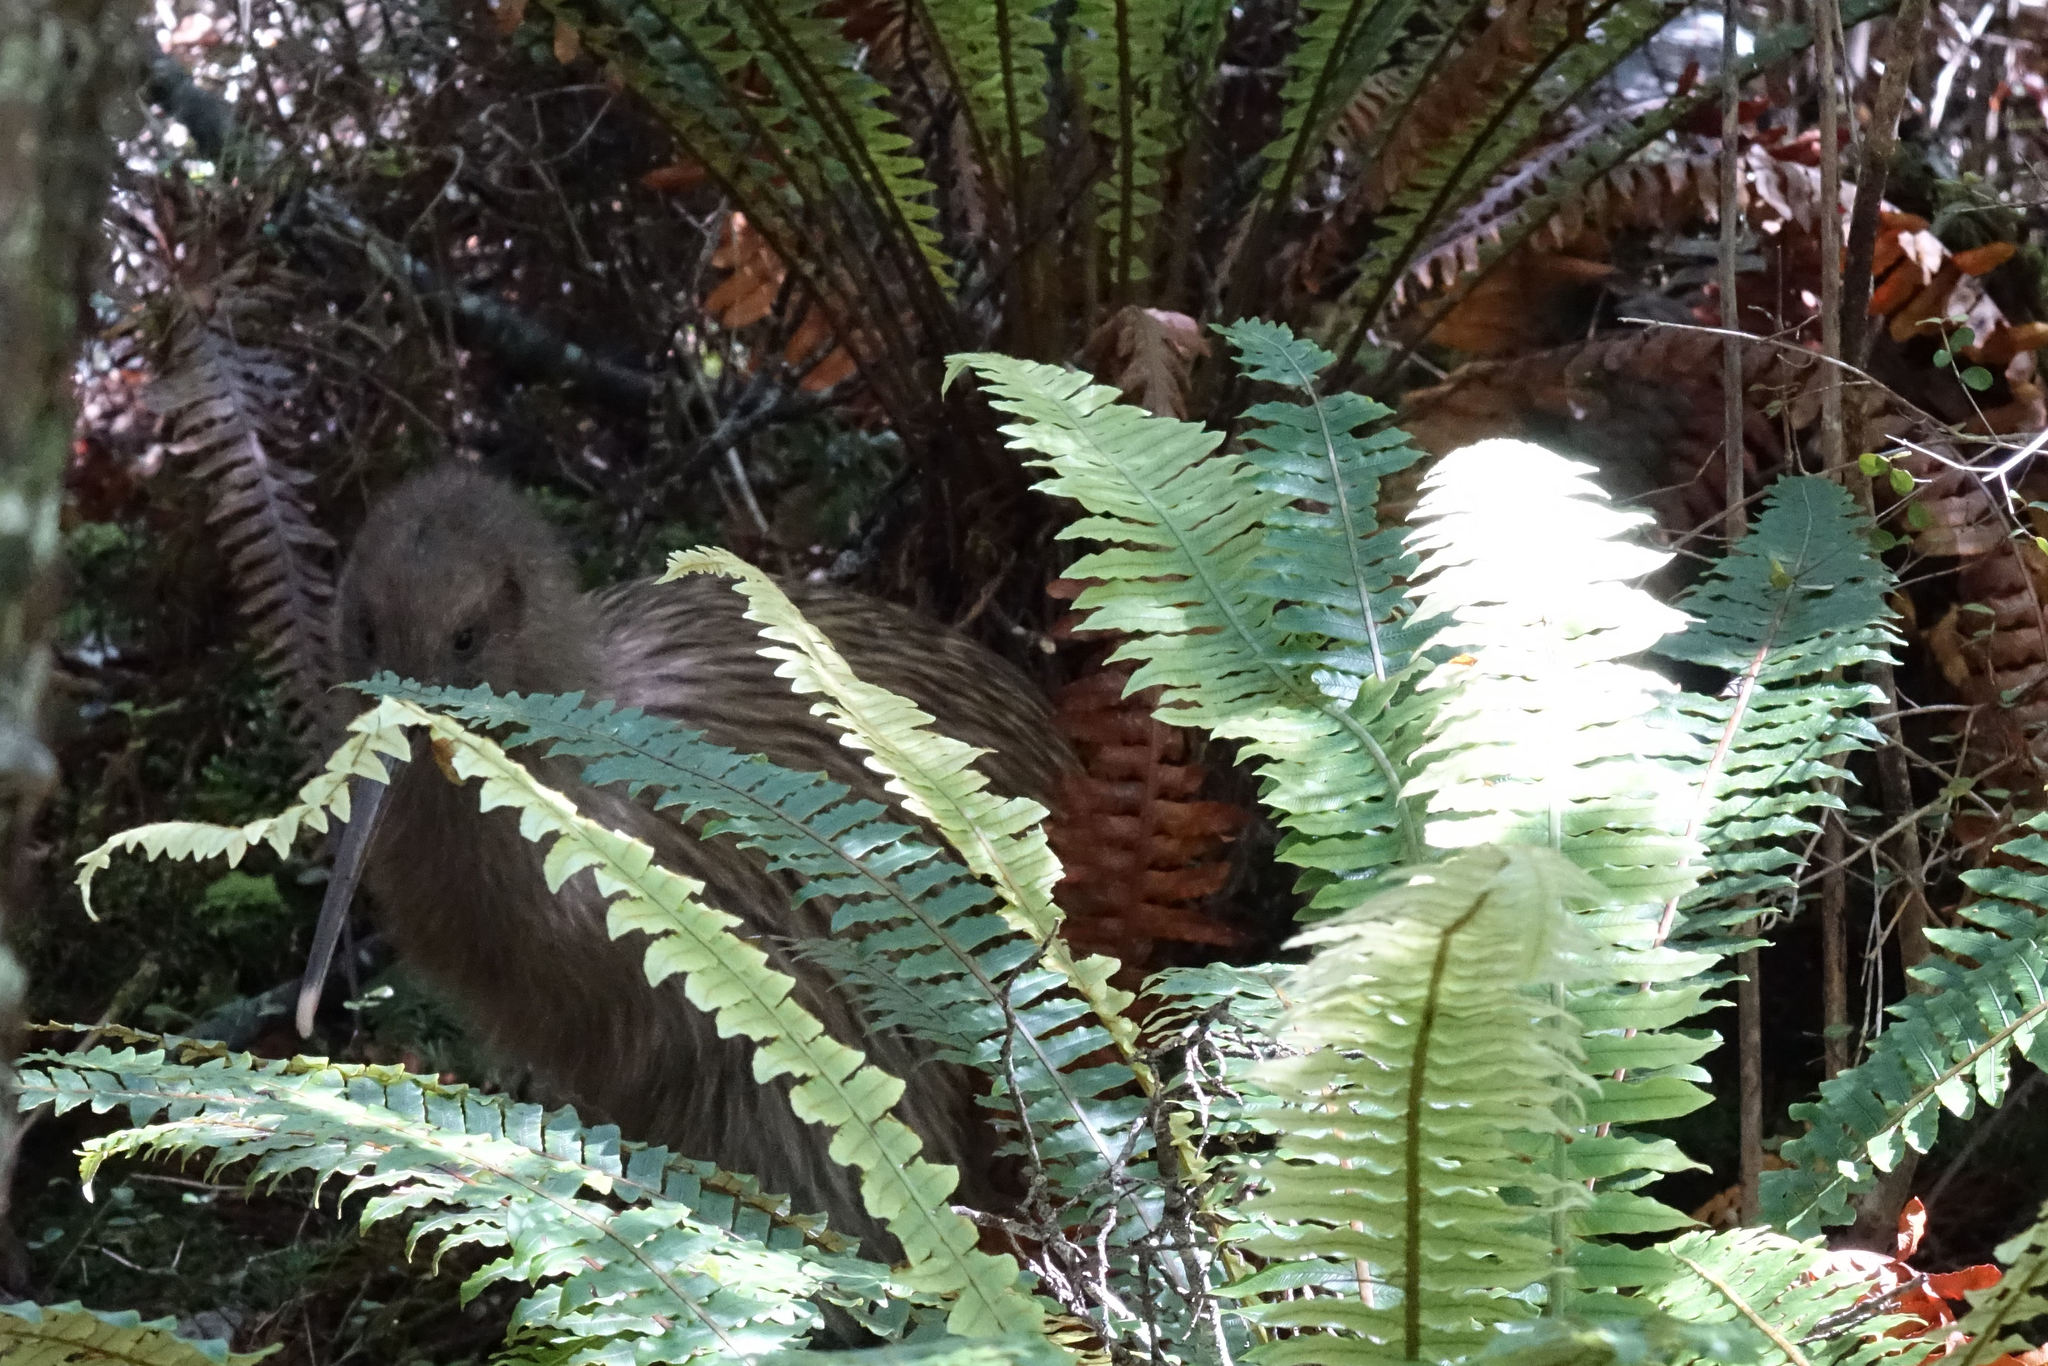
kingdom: Animalia
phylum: Chordata
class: Aves
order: Apterygiformes
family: Apterygidae
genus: Apteryx
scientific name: Apteryx australis
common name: Southern brown kiwi
